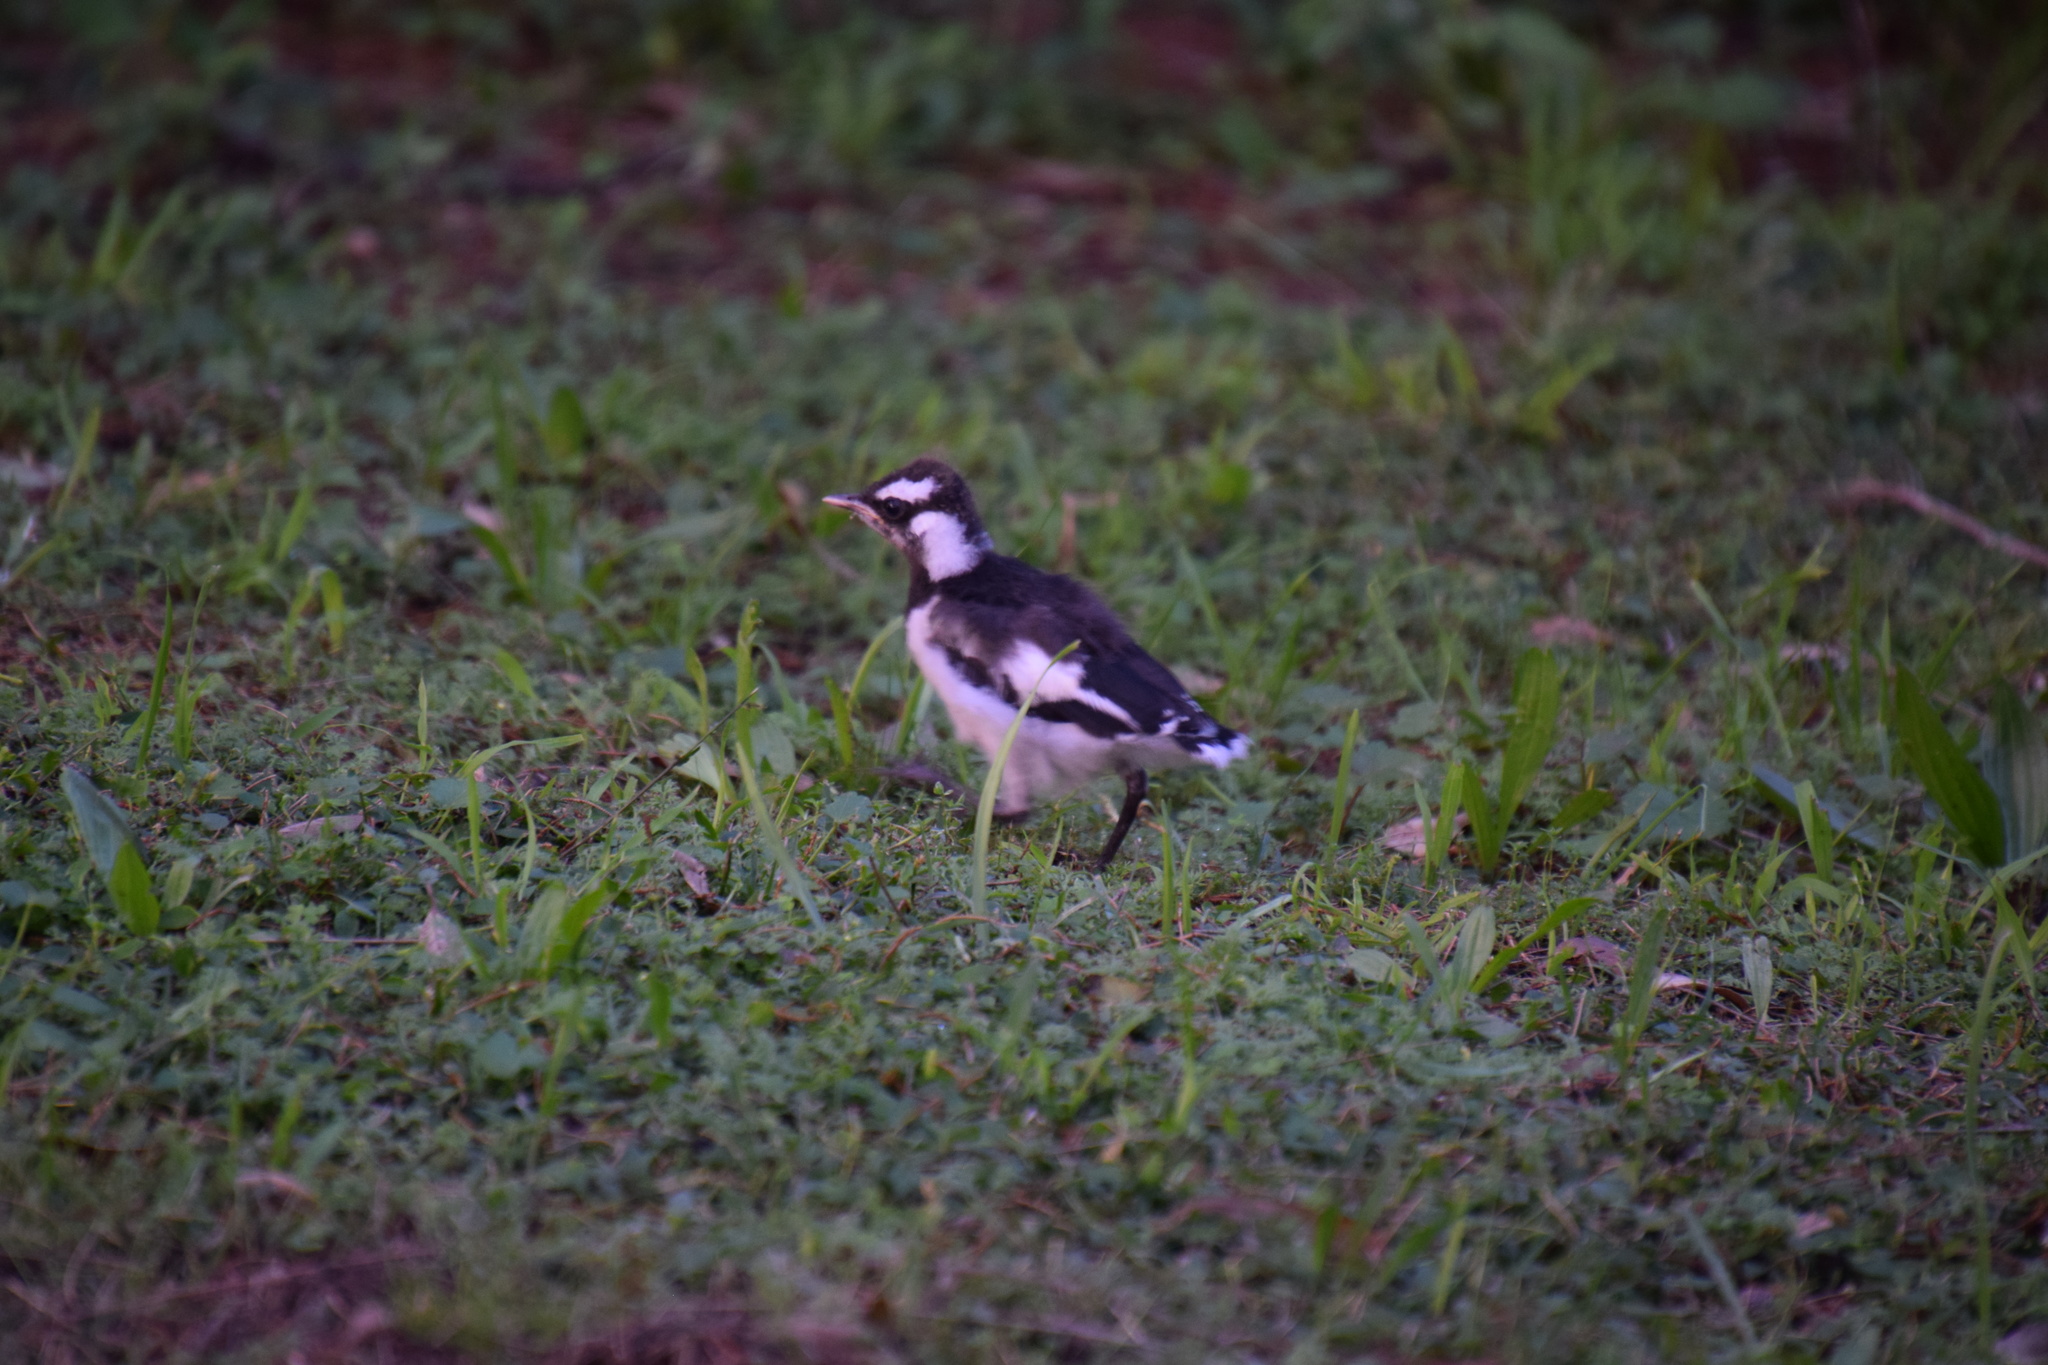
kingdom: Animalia
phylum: Chordata
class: Aves
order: Passeriformes
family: Monarchidae
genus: Grallina
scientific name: Grallina cyanoleuca
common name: Magpie-lark
